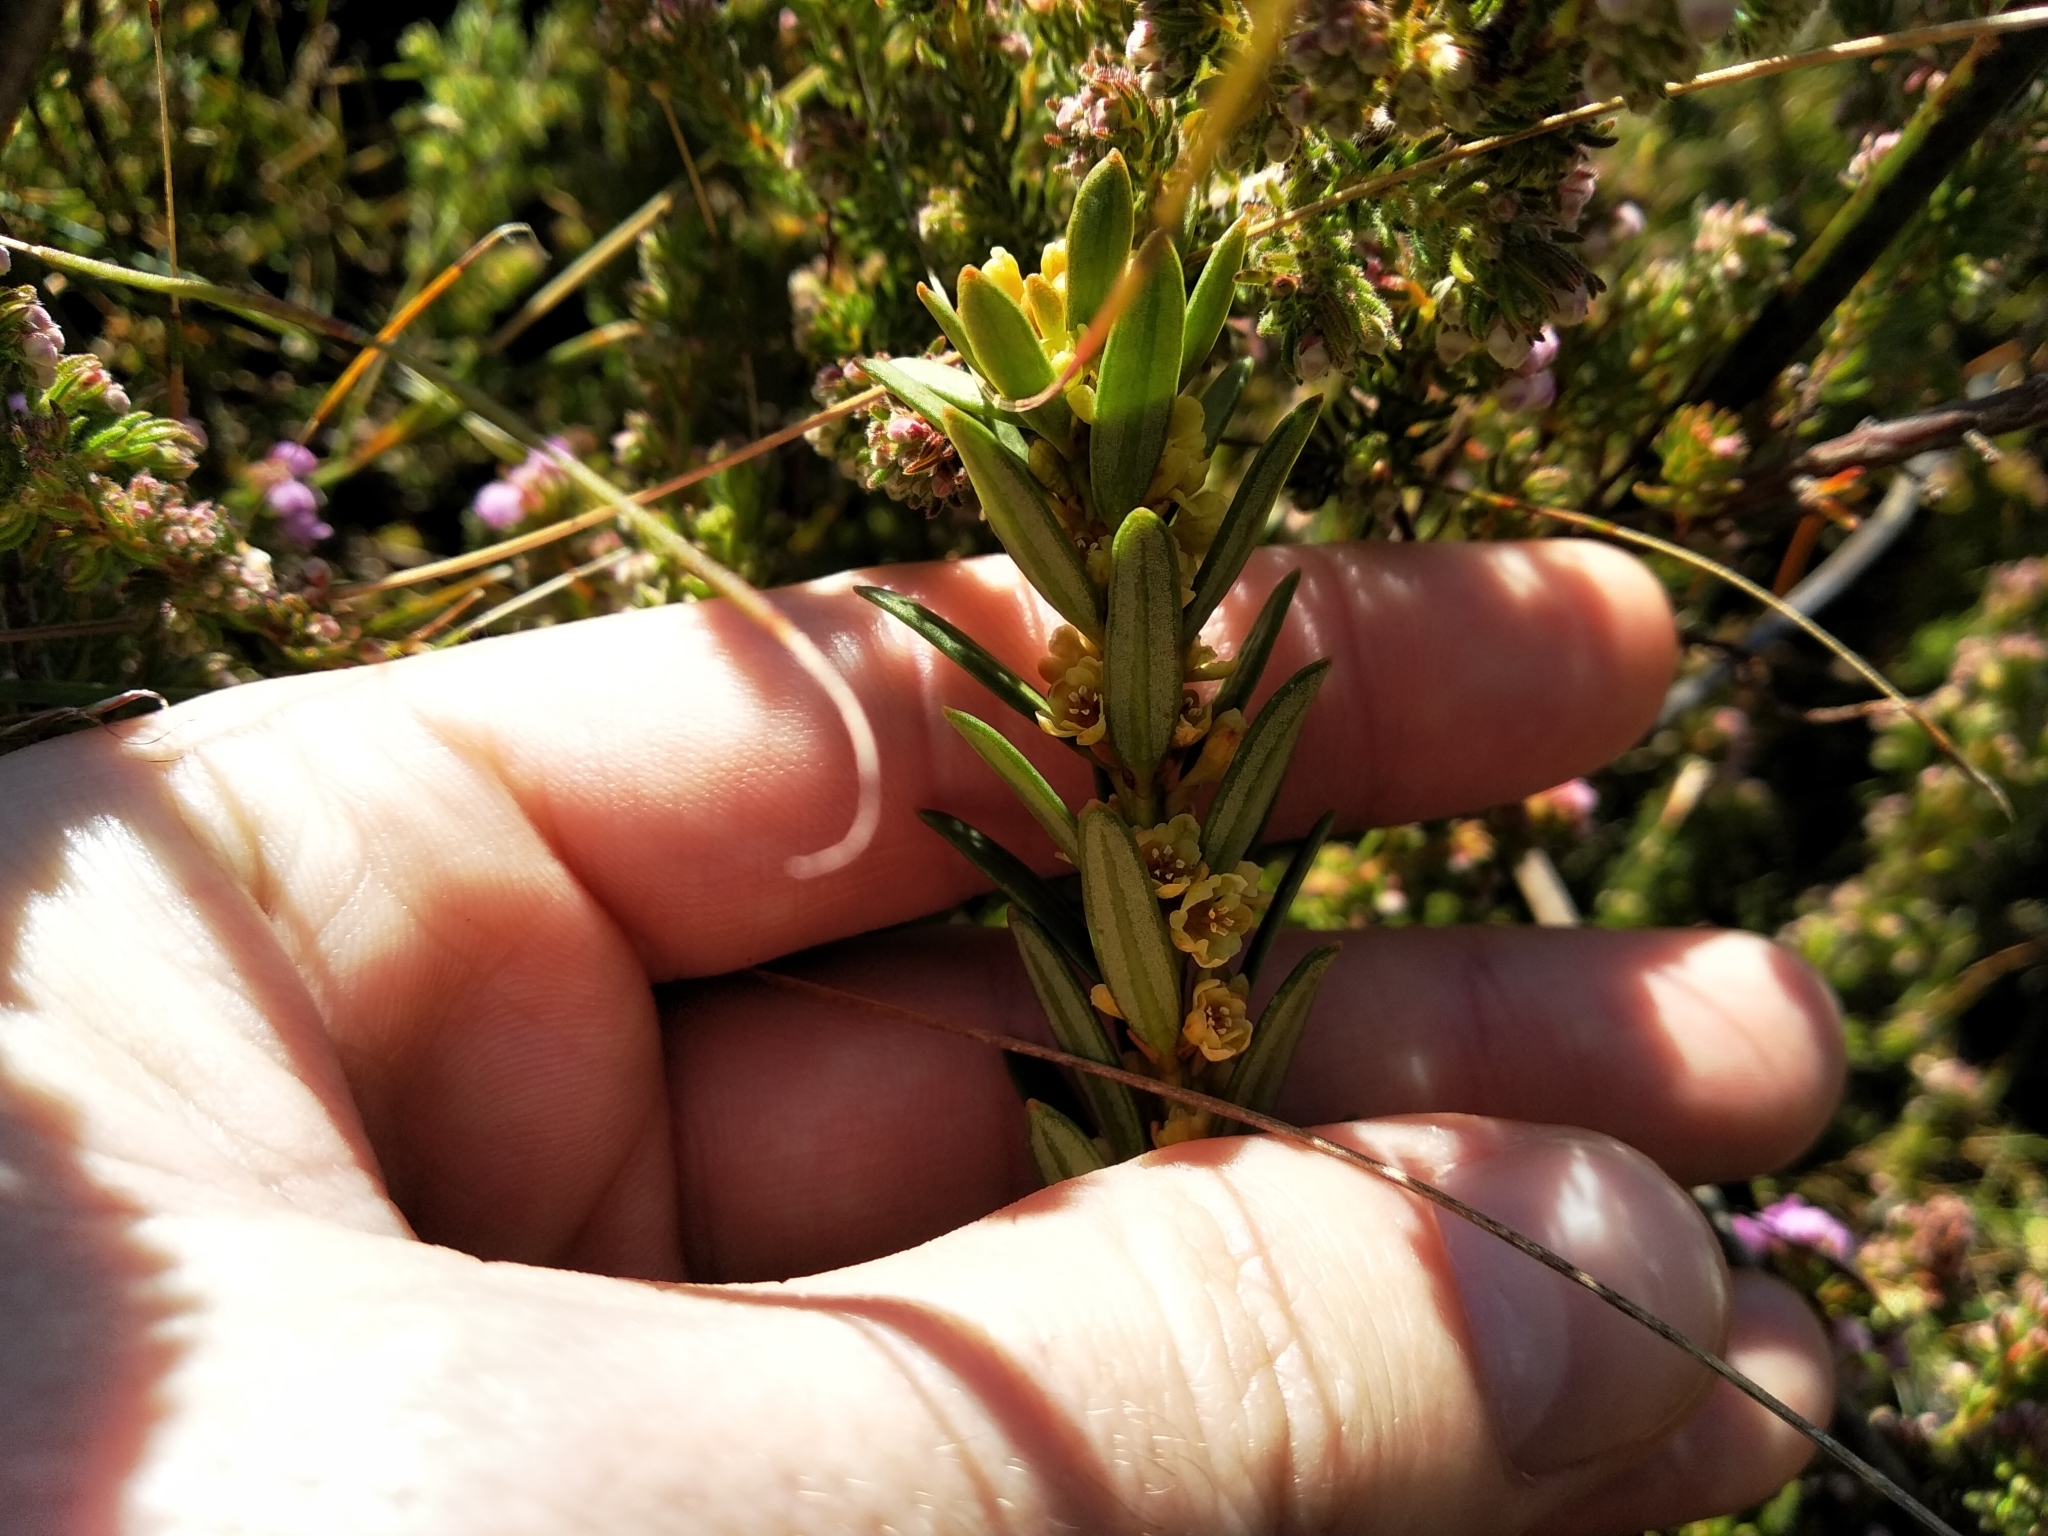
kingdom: Plantae
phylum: Tracheophyta
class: Magnoliopsida
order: Malpighiales
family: Peraceae
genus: Clutia
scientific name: Clutia polygonoides
